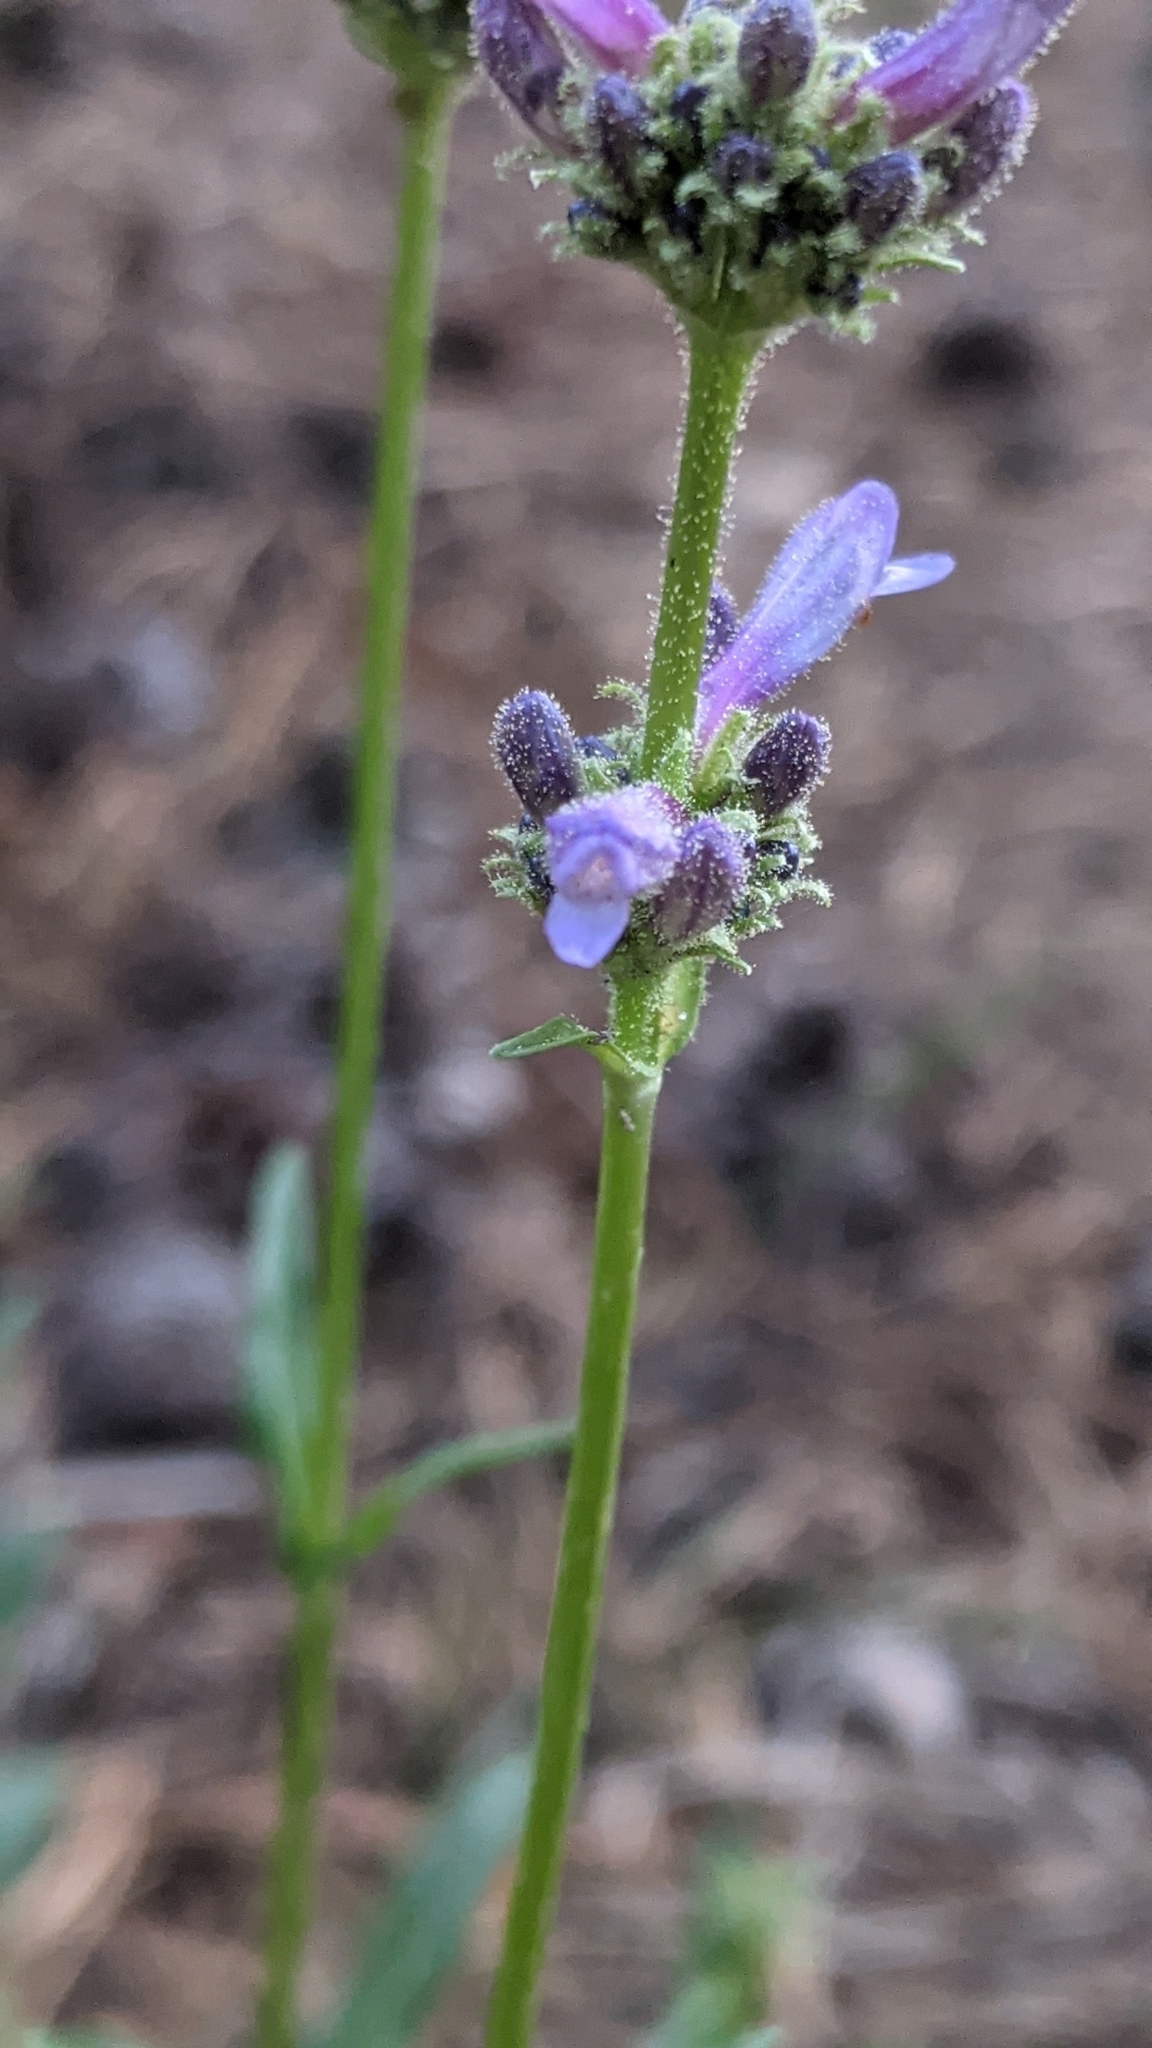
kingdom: Plantae
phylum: Tracheophyta
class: Magnoliopsida
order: Lamiales
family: Plantaginaceae
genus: Penstemon
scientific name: Penstemon heterodoxus
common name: Sierran penstemon
